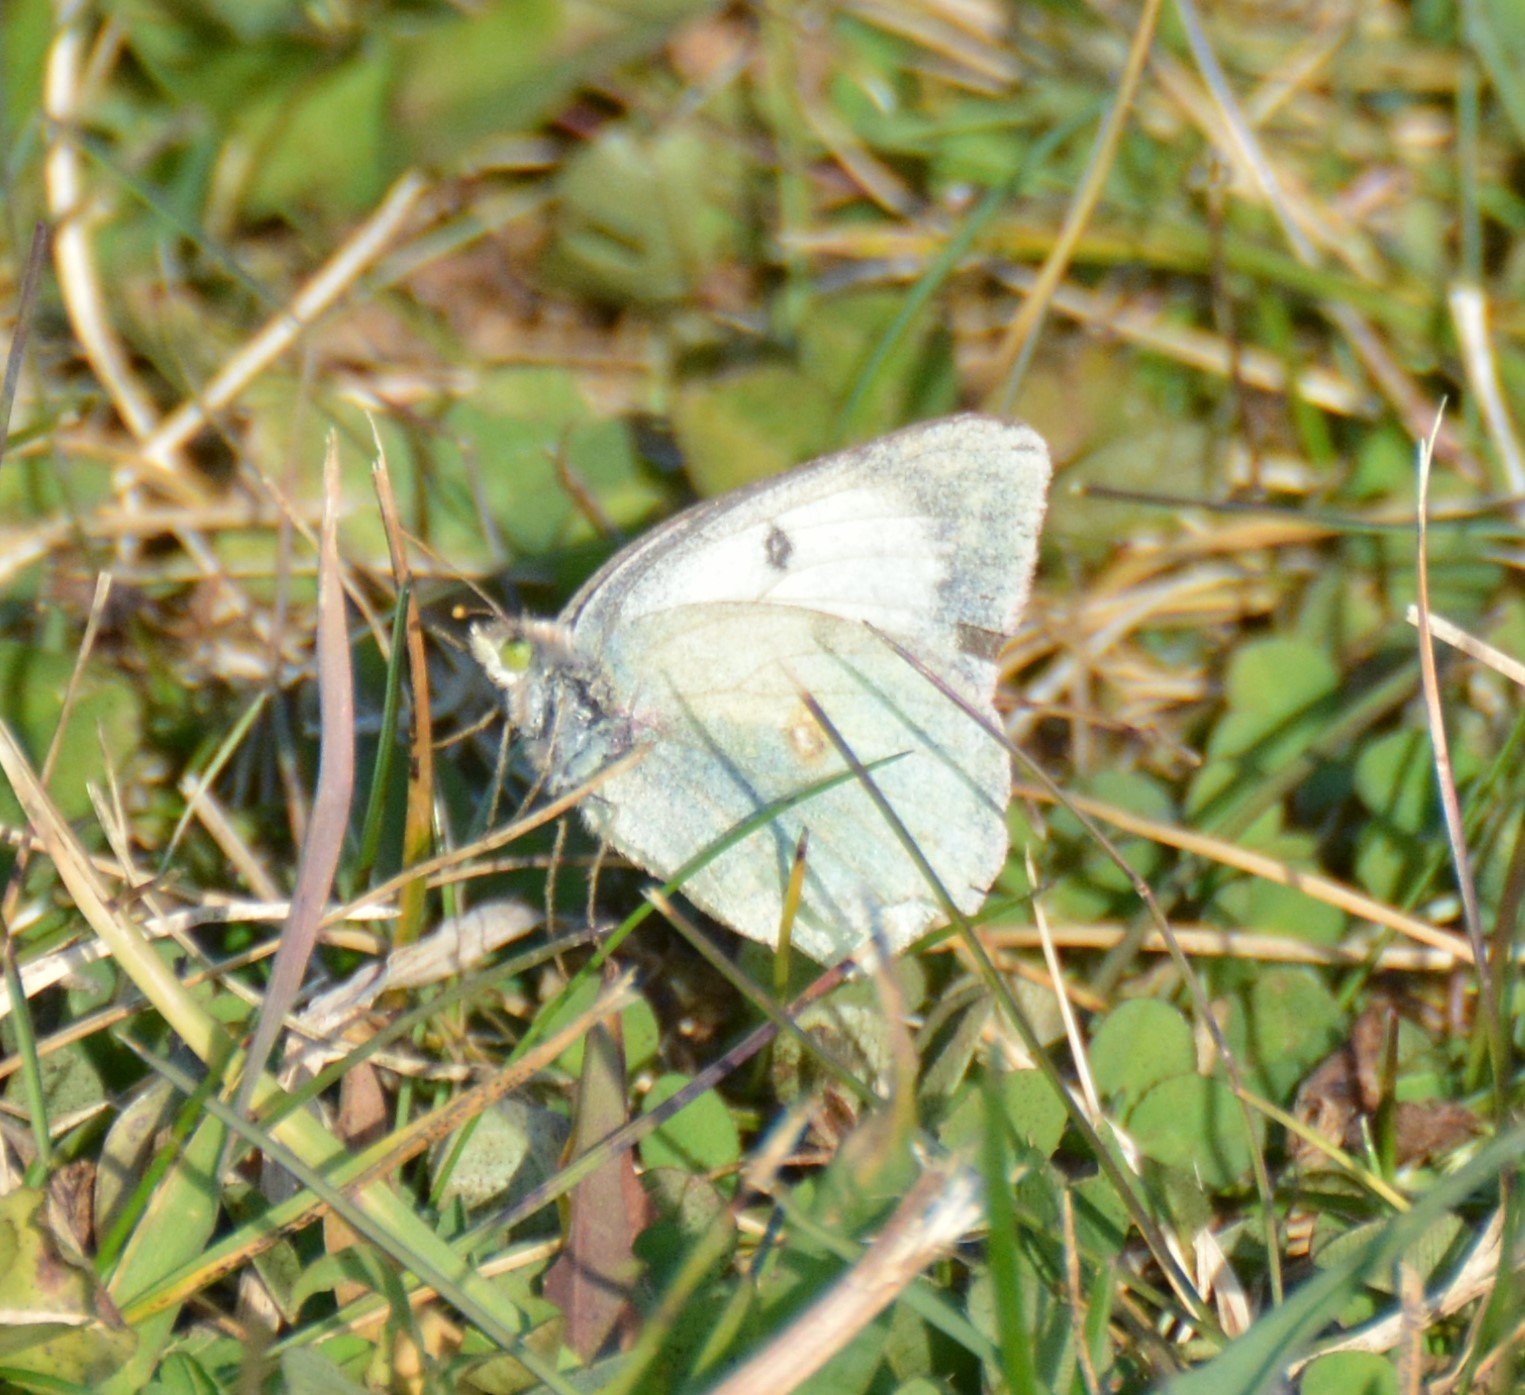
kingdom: Animalia
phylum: Arthropoda
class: Insecta
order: Lepidoptera
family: Pieridae
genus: Colias
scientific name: Colias philodice
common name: Clouded sulphur
